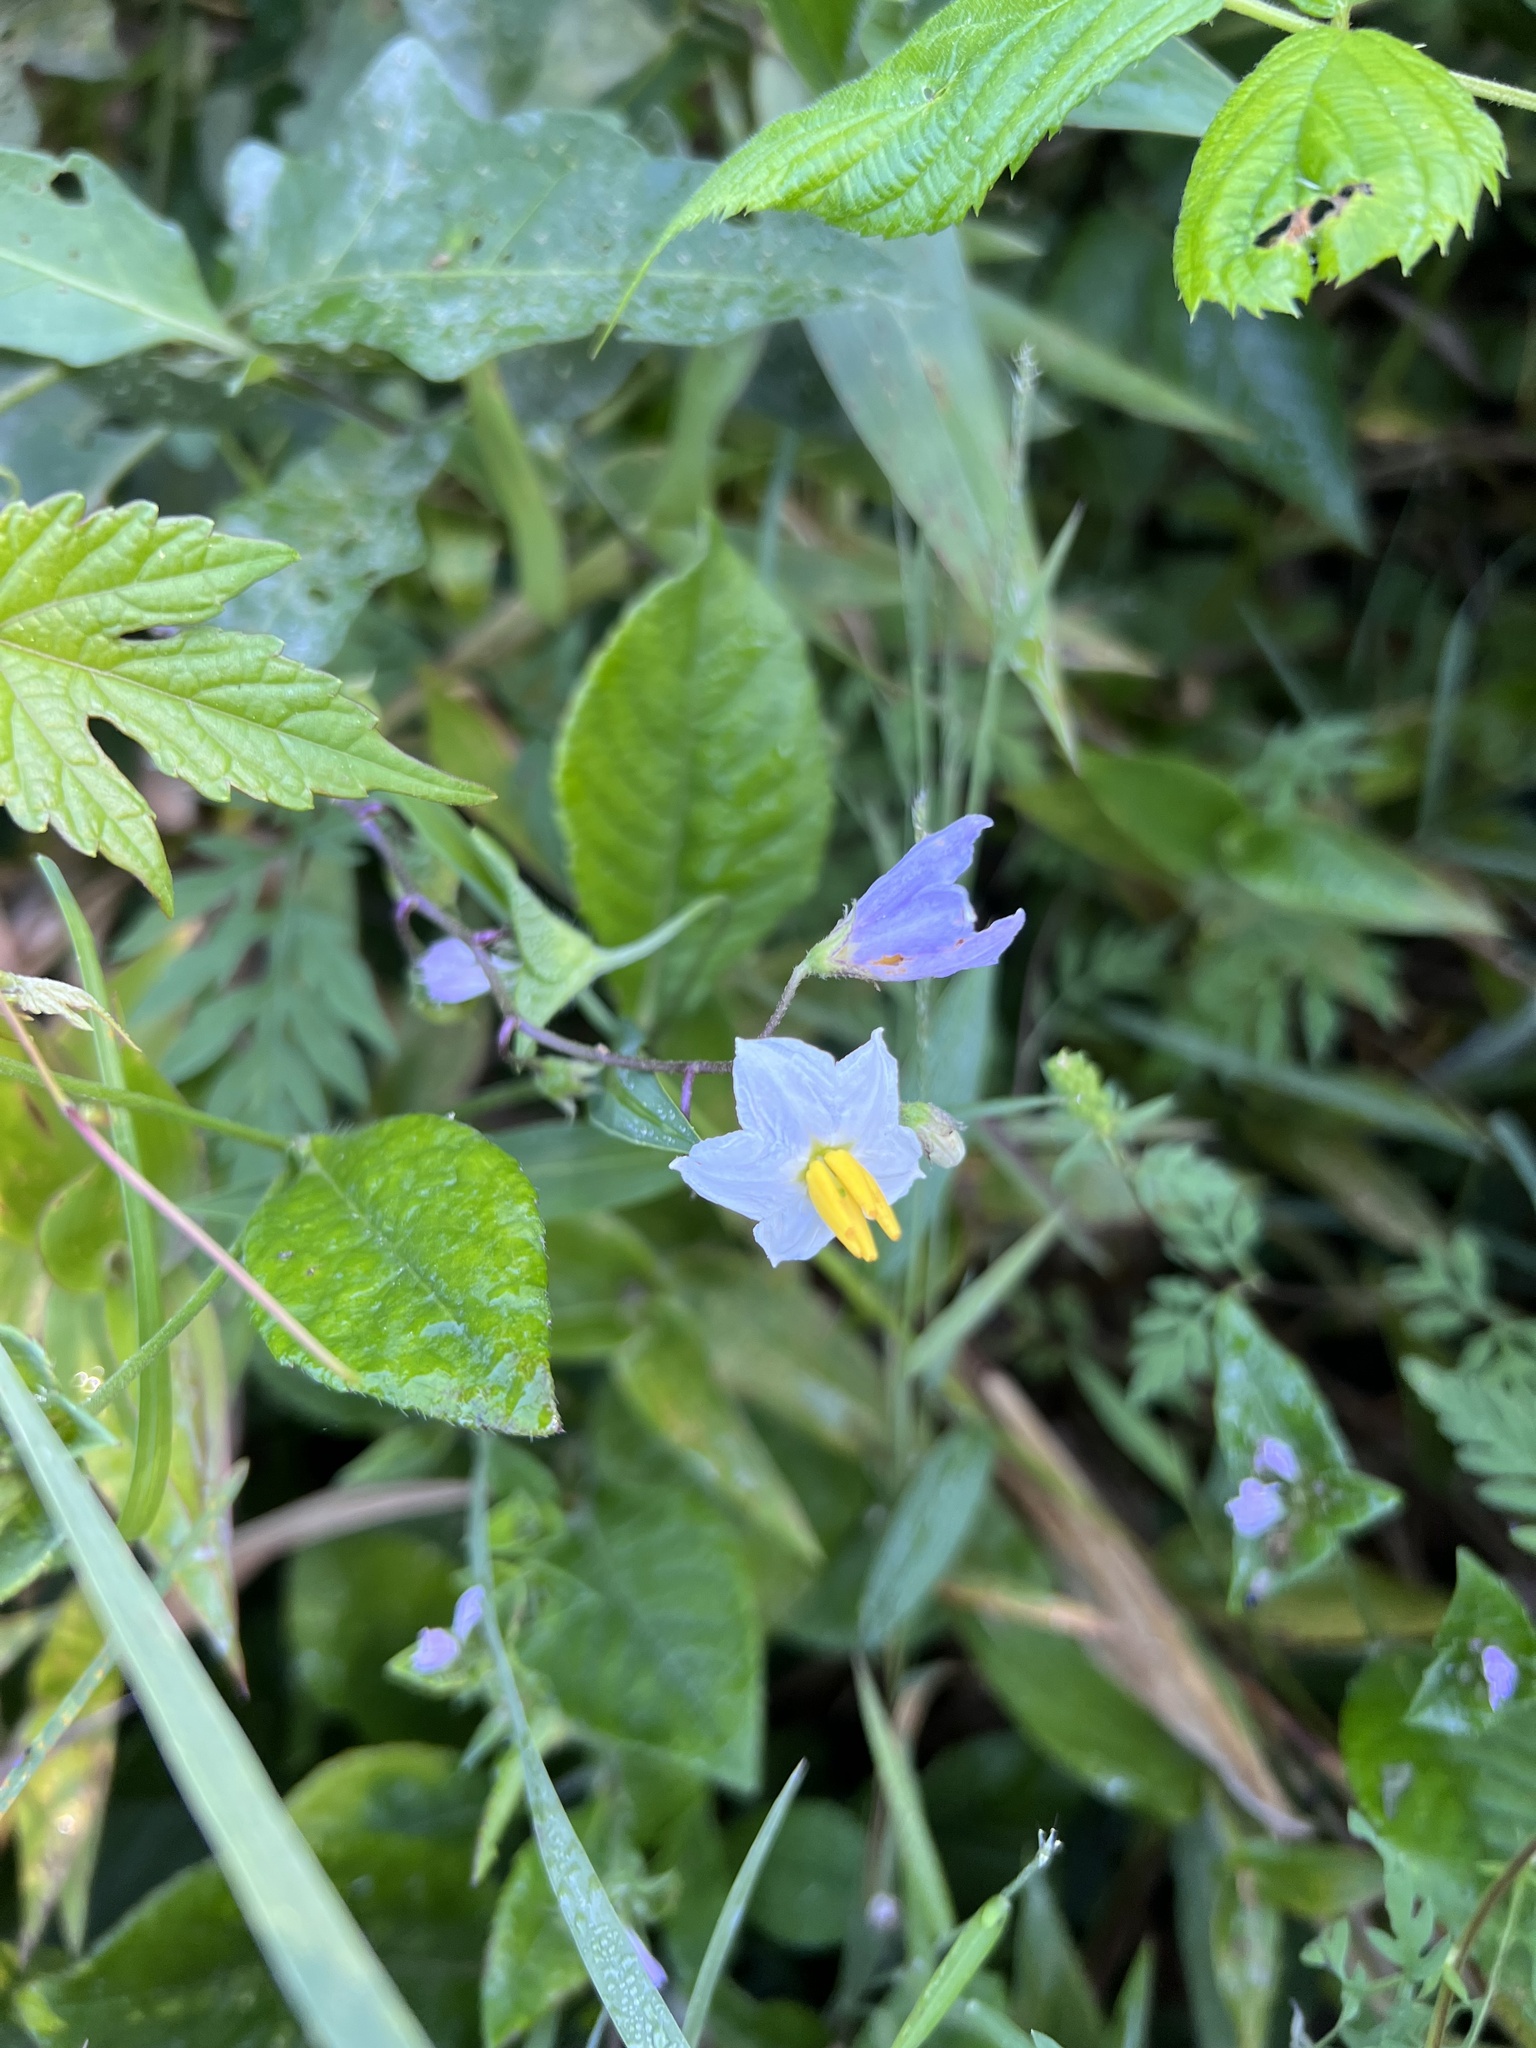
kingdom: Plantae
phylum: Tracheophyta
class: Magnoliopsida
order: Solanales
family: Solanaceae
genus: Solanum
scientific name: Solanum carolinense
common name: Horse-nettle
